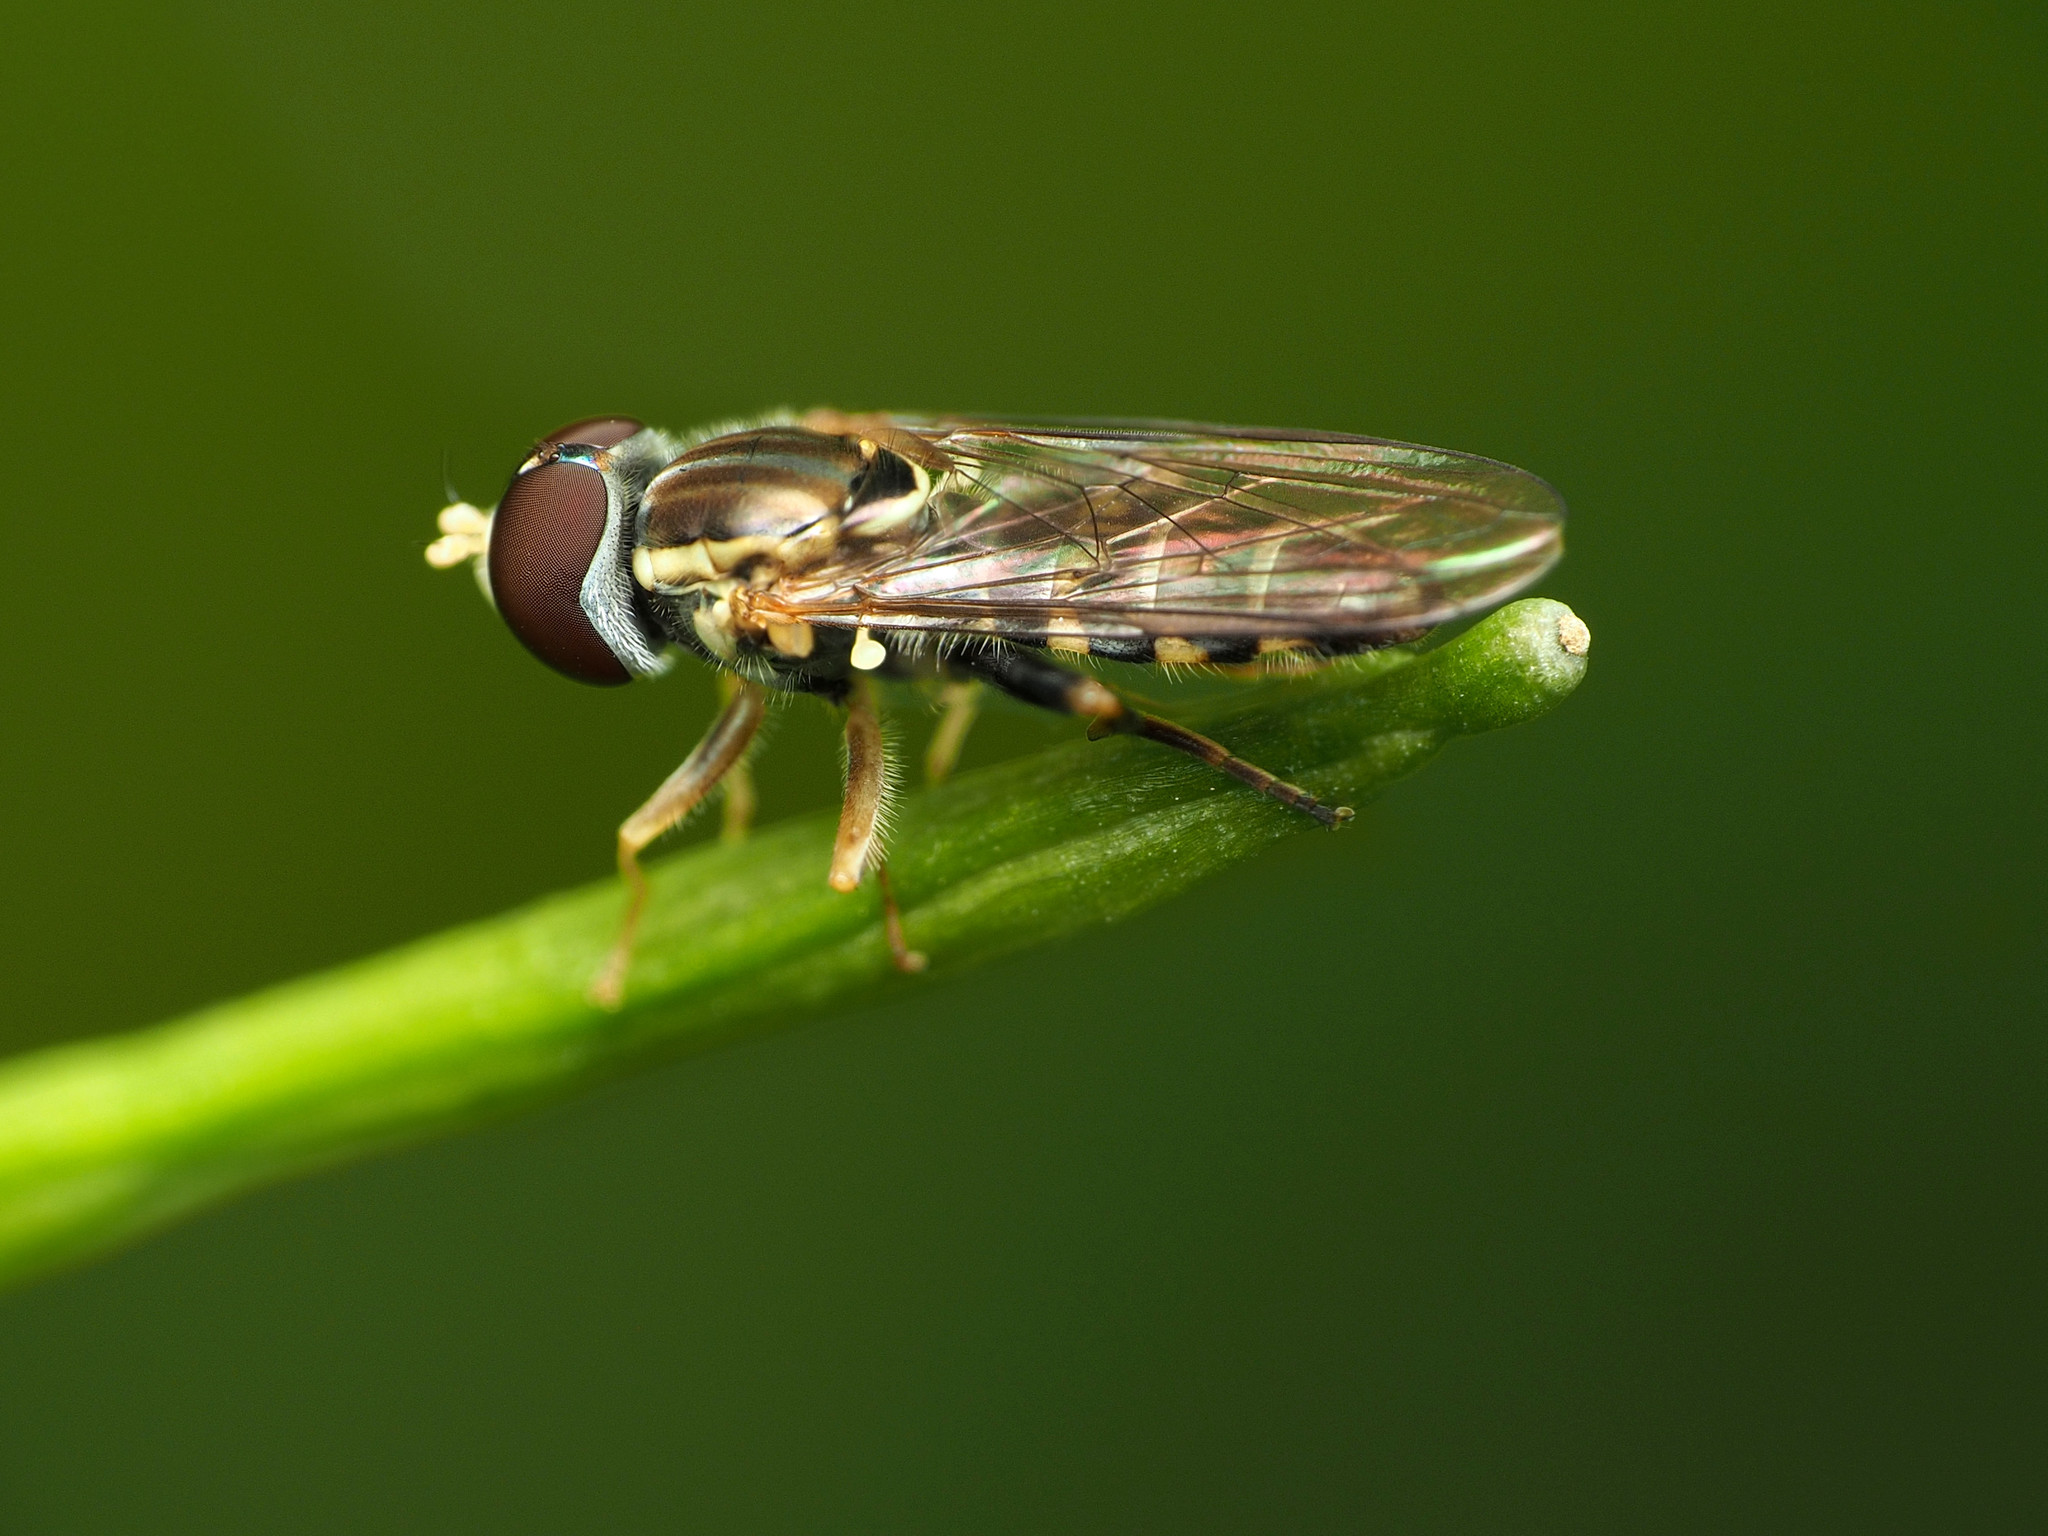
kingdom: Animalia
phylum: Arthropoda
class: Insecta
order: Diptera
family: Syrphidae
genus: Toxomerus
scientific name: Toxomerus geminatus
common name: Eastern calligrapher
